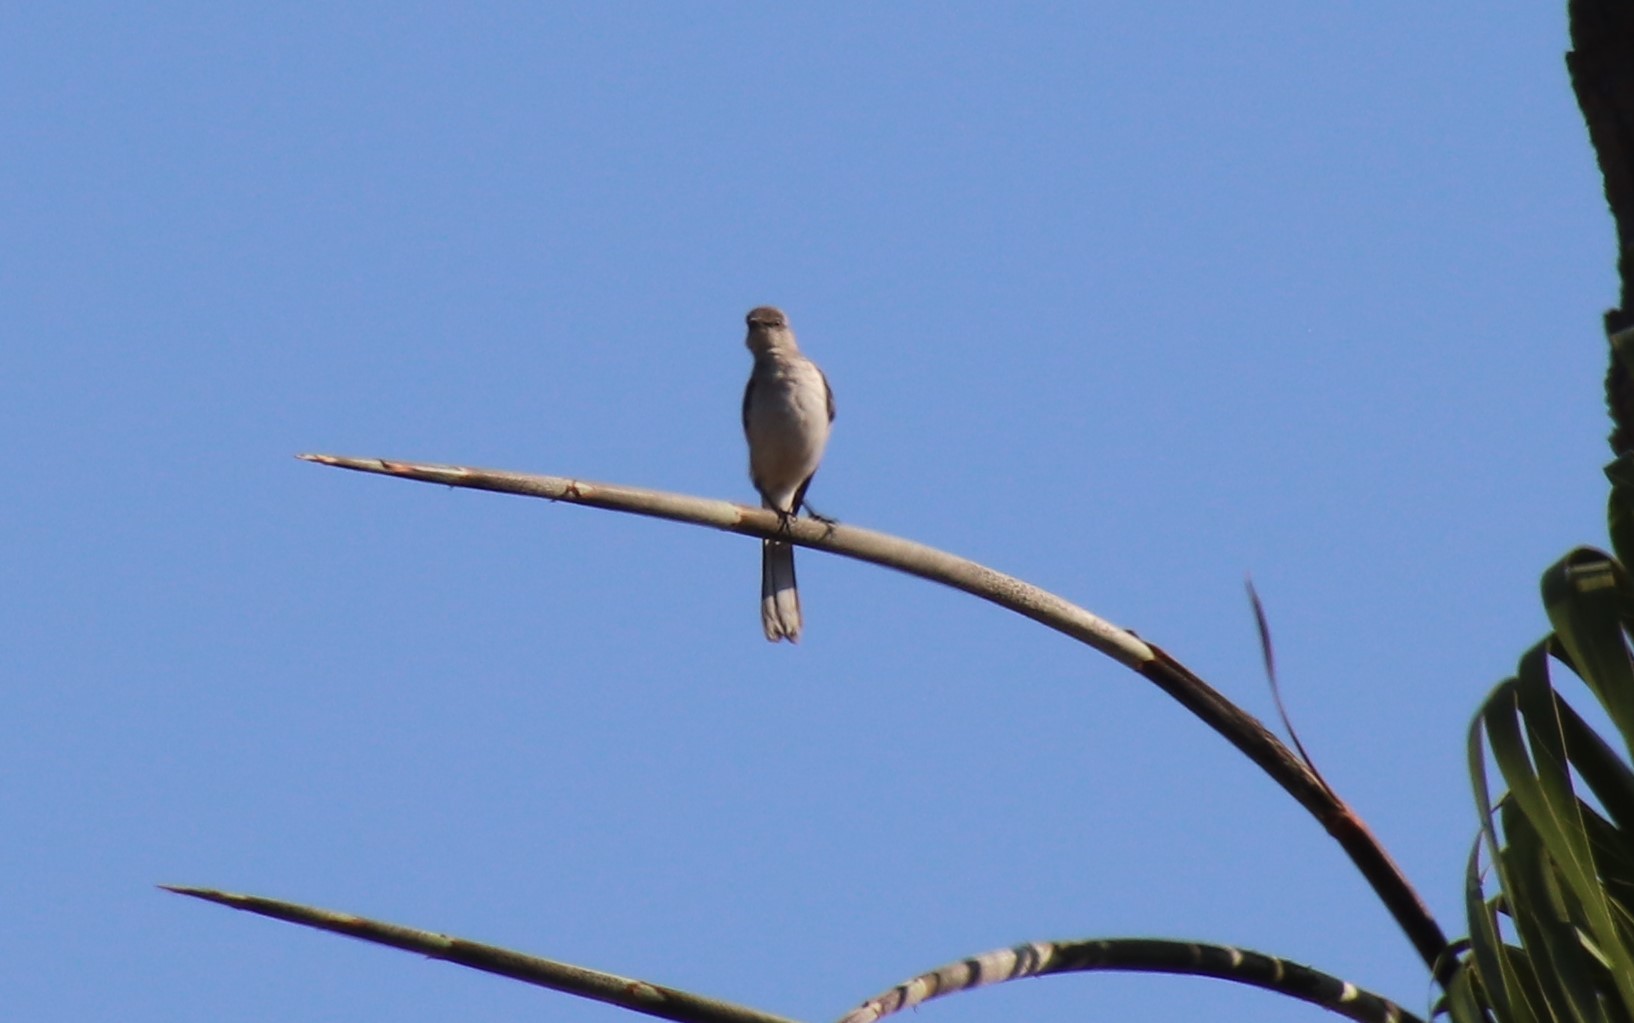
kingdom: Animalia
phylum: Chordata
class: Aves
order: Passeriformes
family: Mimidae
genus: Mimus
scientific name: Mimus polyglottos
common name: Northern mockingbird
